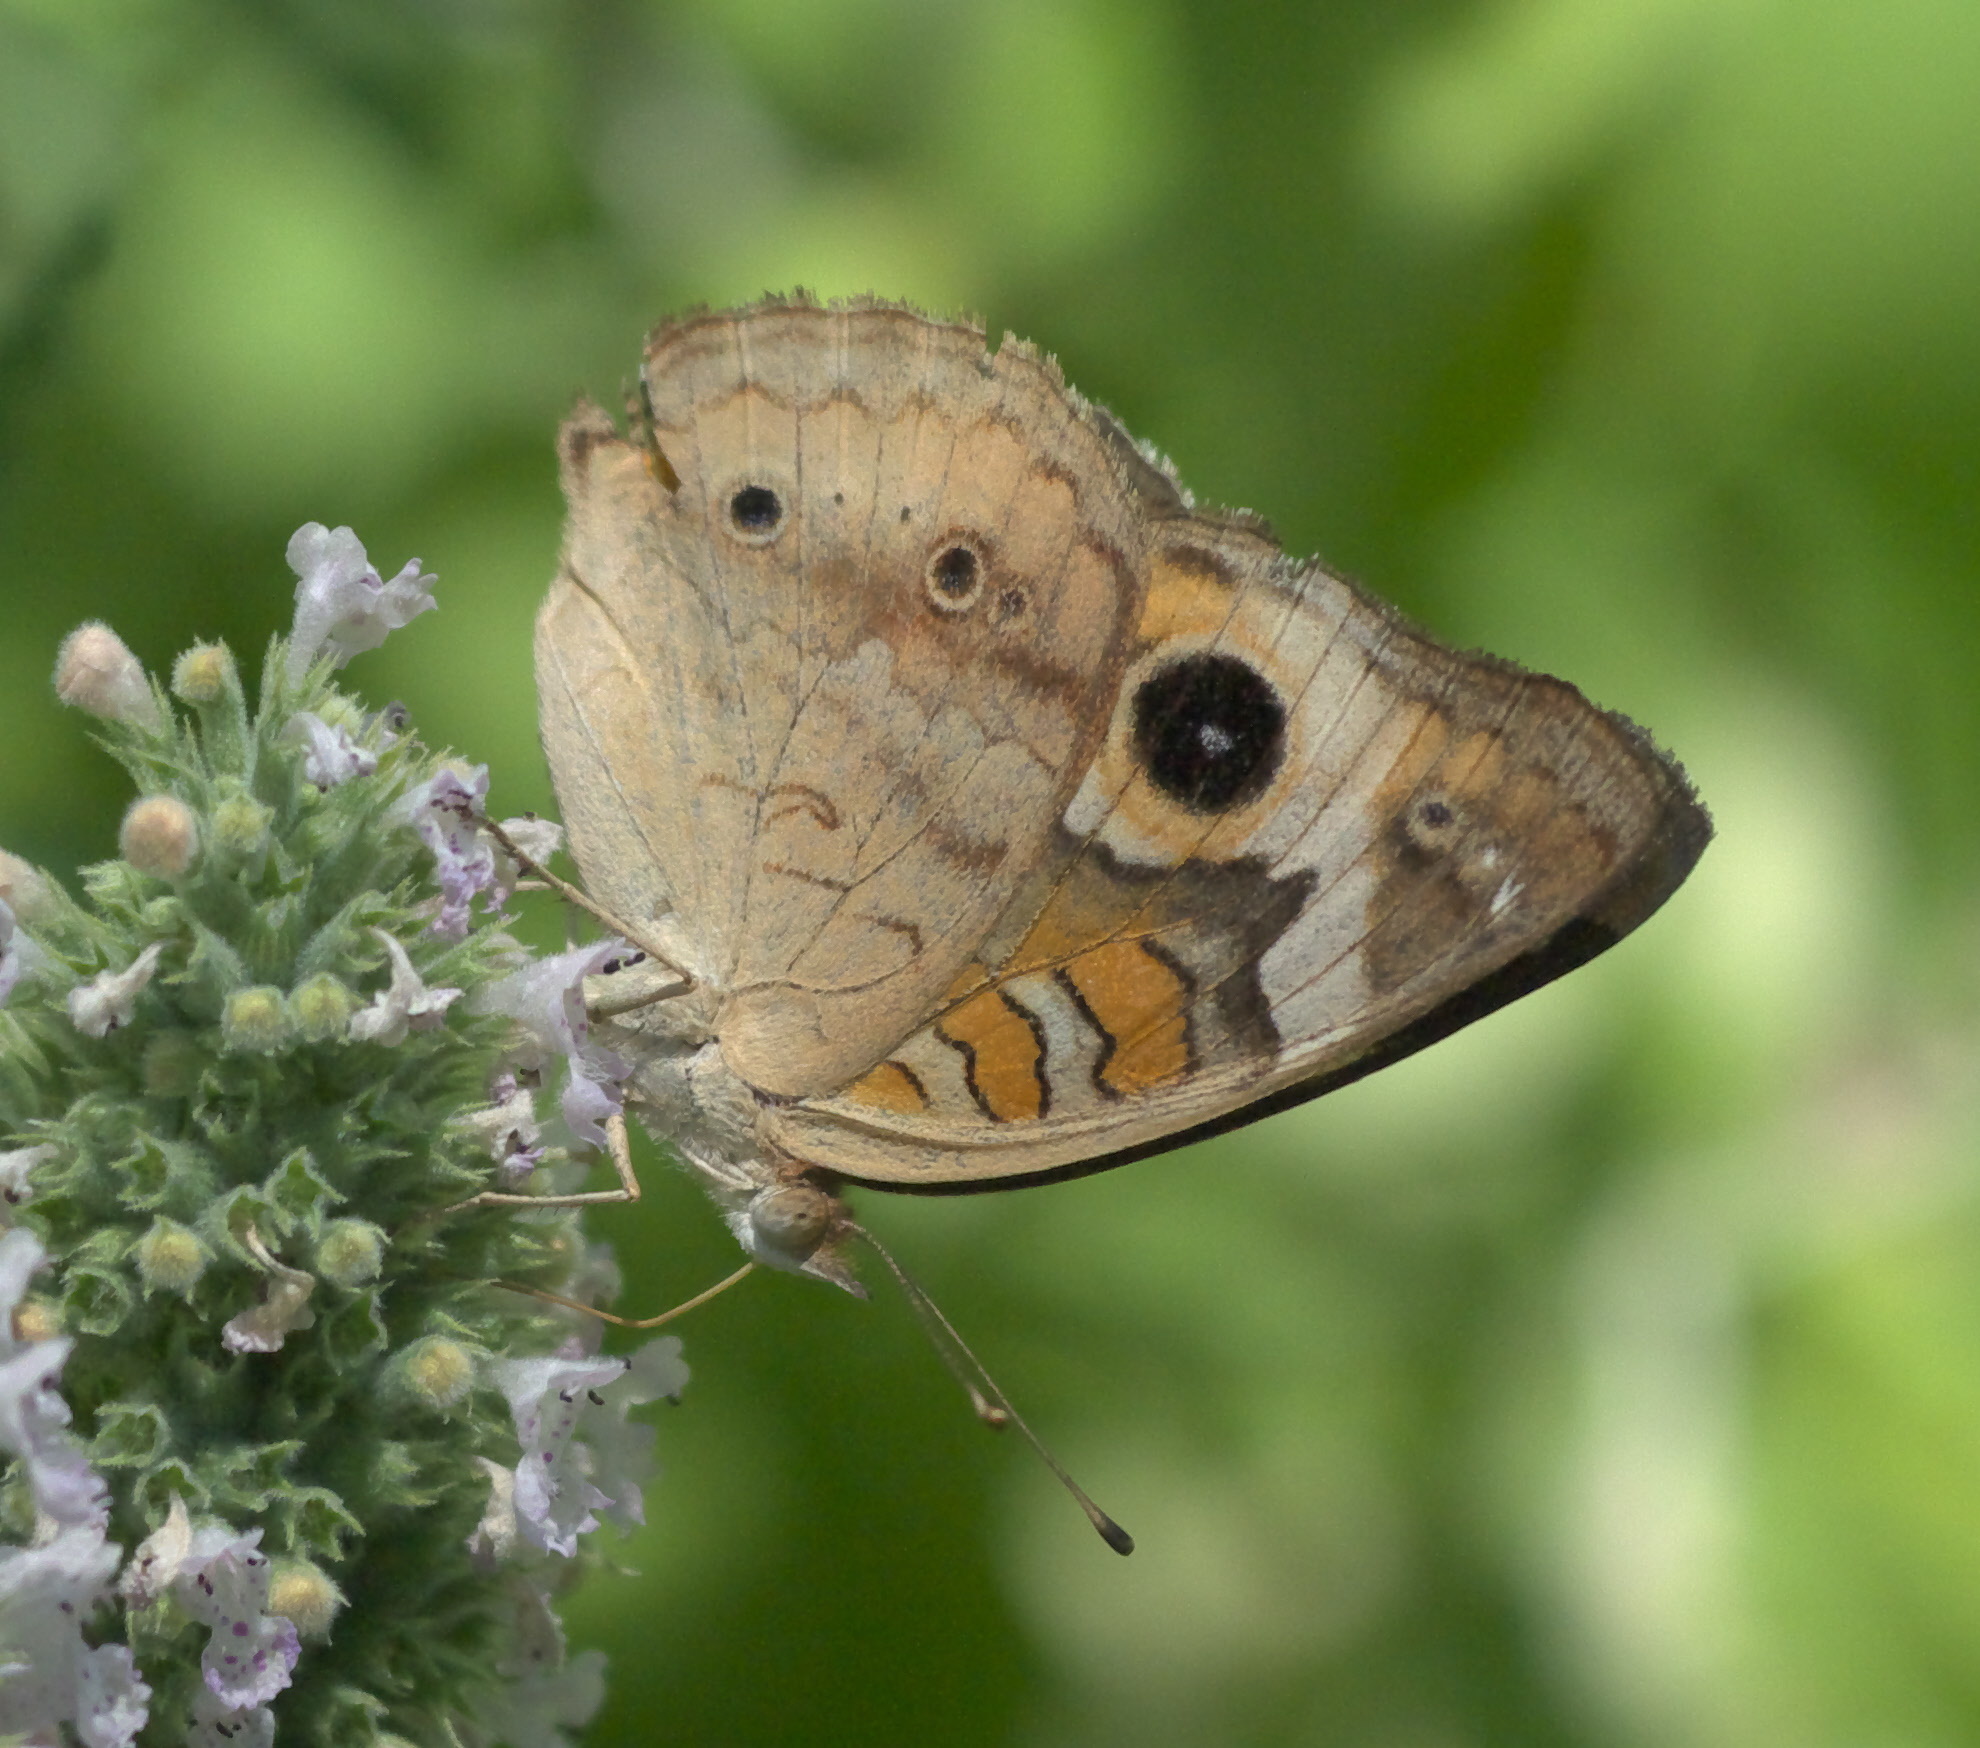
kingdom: Animalia
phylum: Arthropoda
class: Insecta
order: Lepidoptera
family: Nymphalidae
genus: Junonia
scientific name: Junonia coenia
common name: Common buckeye
